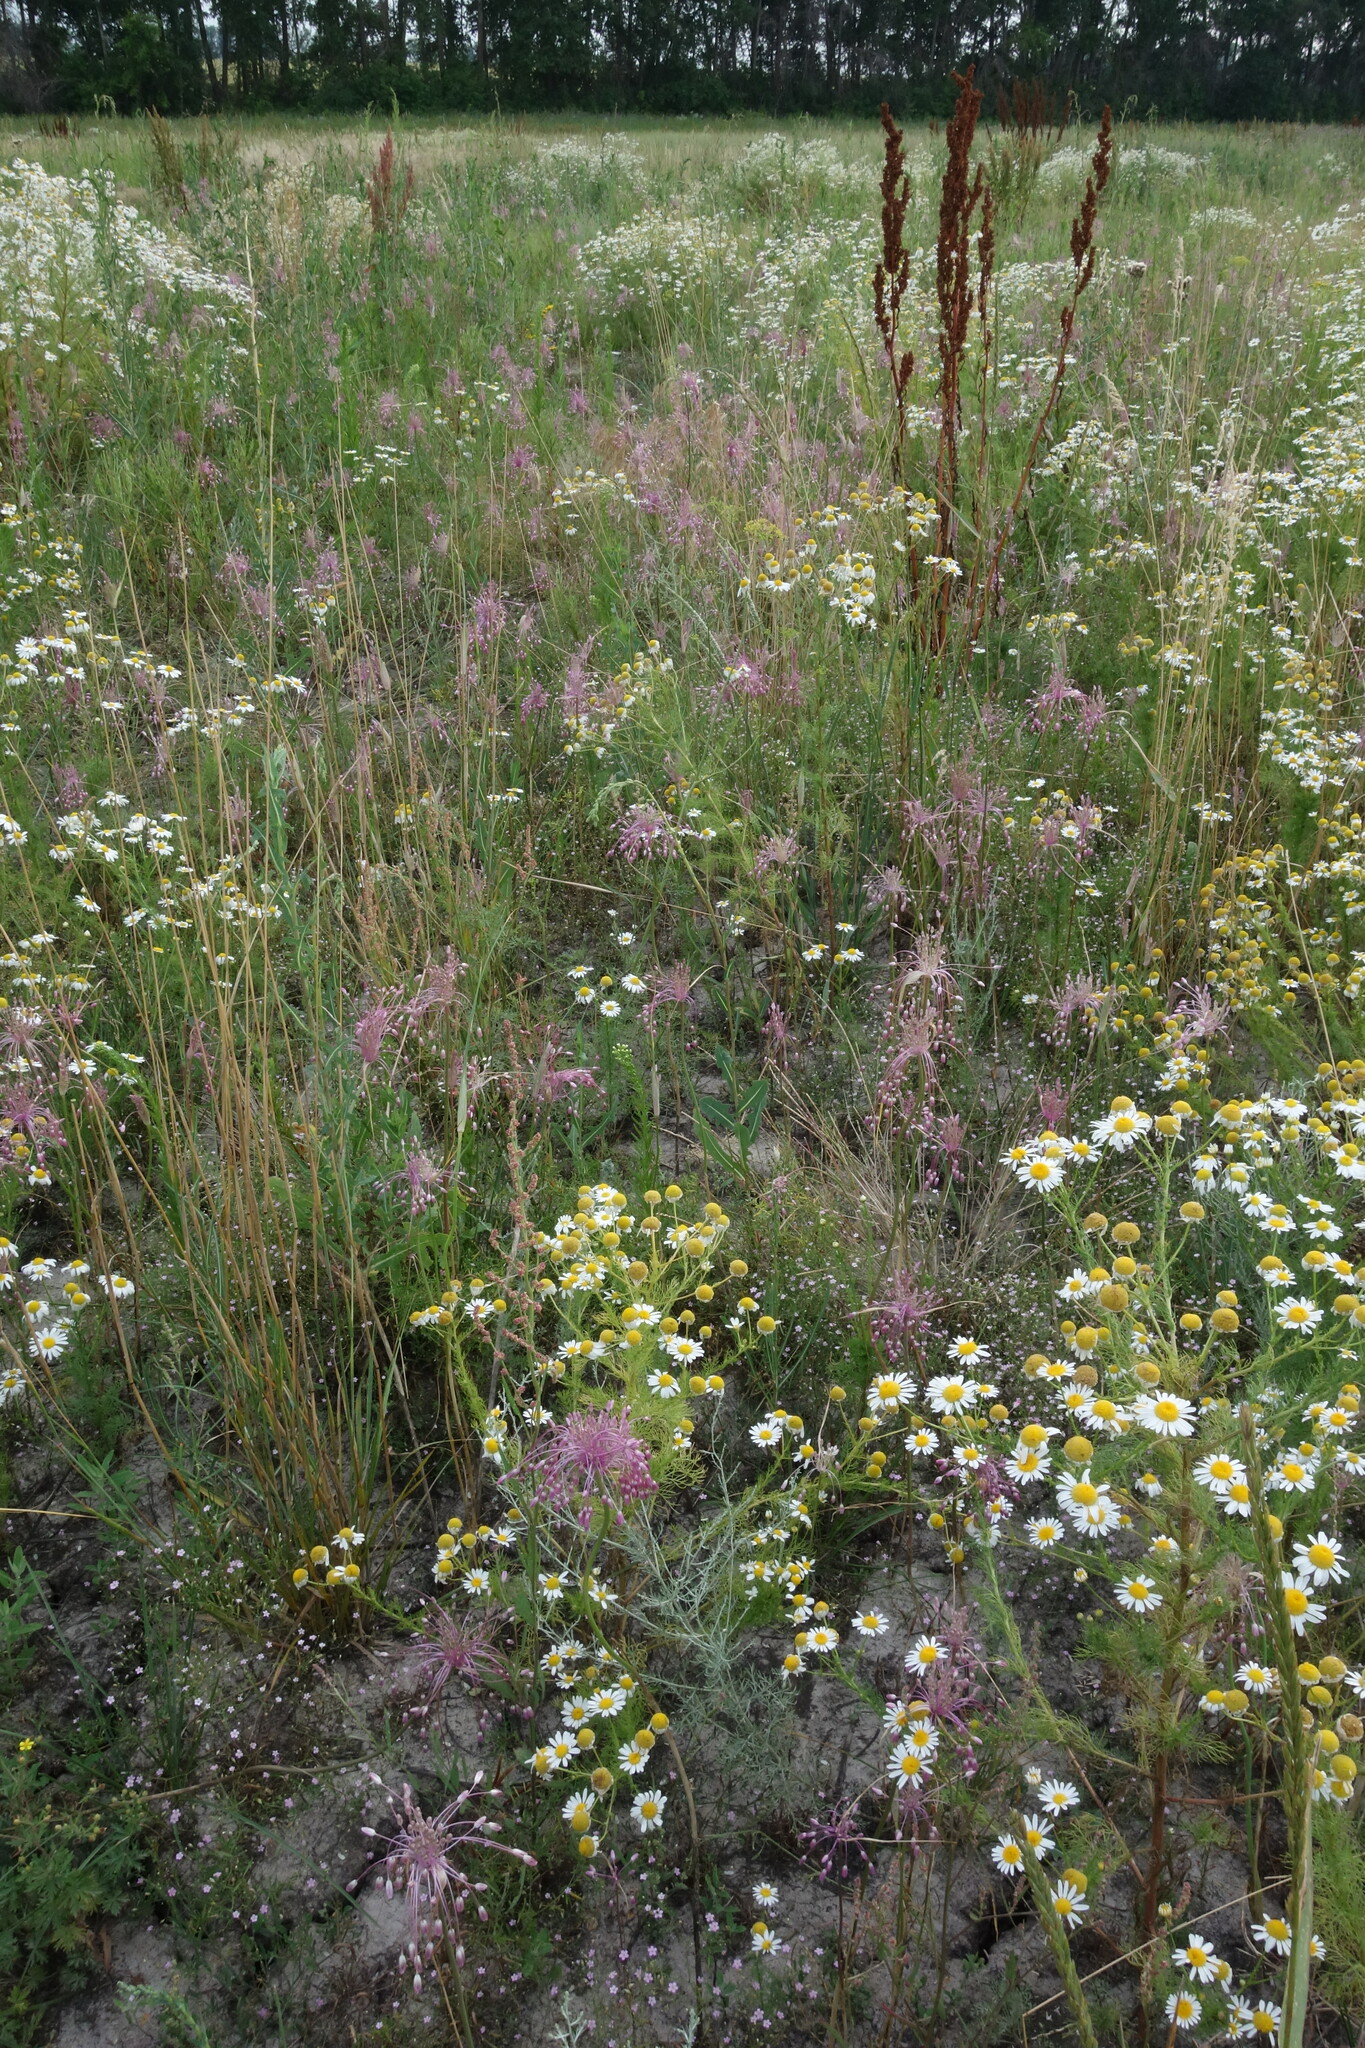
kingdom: Plantae
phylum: Tracheophyta
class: Liliopsida
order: Asparagales
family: Amaryllidaceae
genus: Allium
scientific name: Allium praescissum
